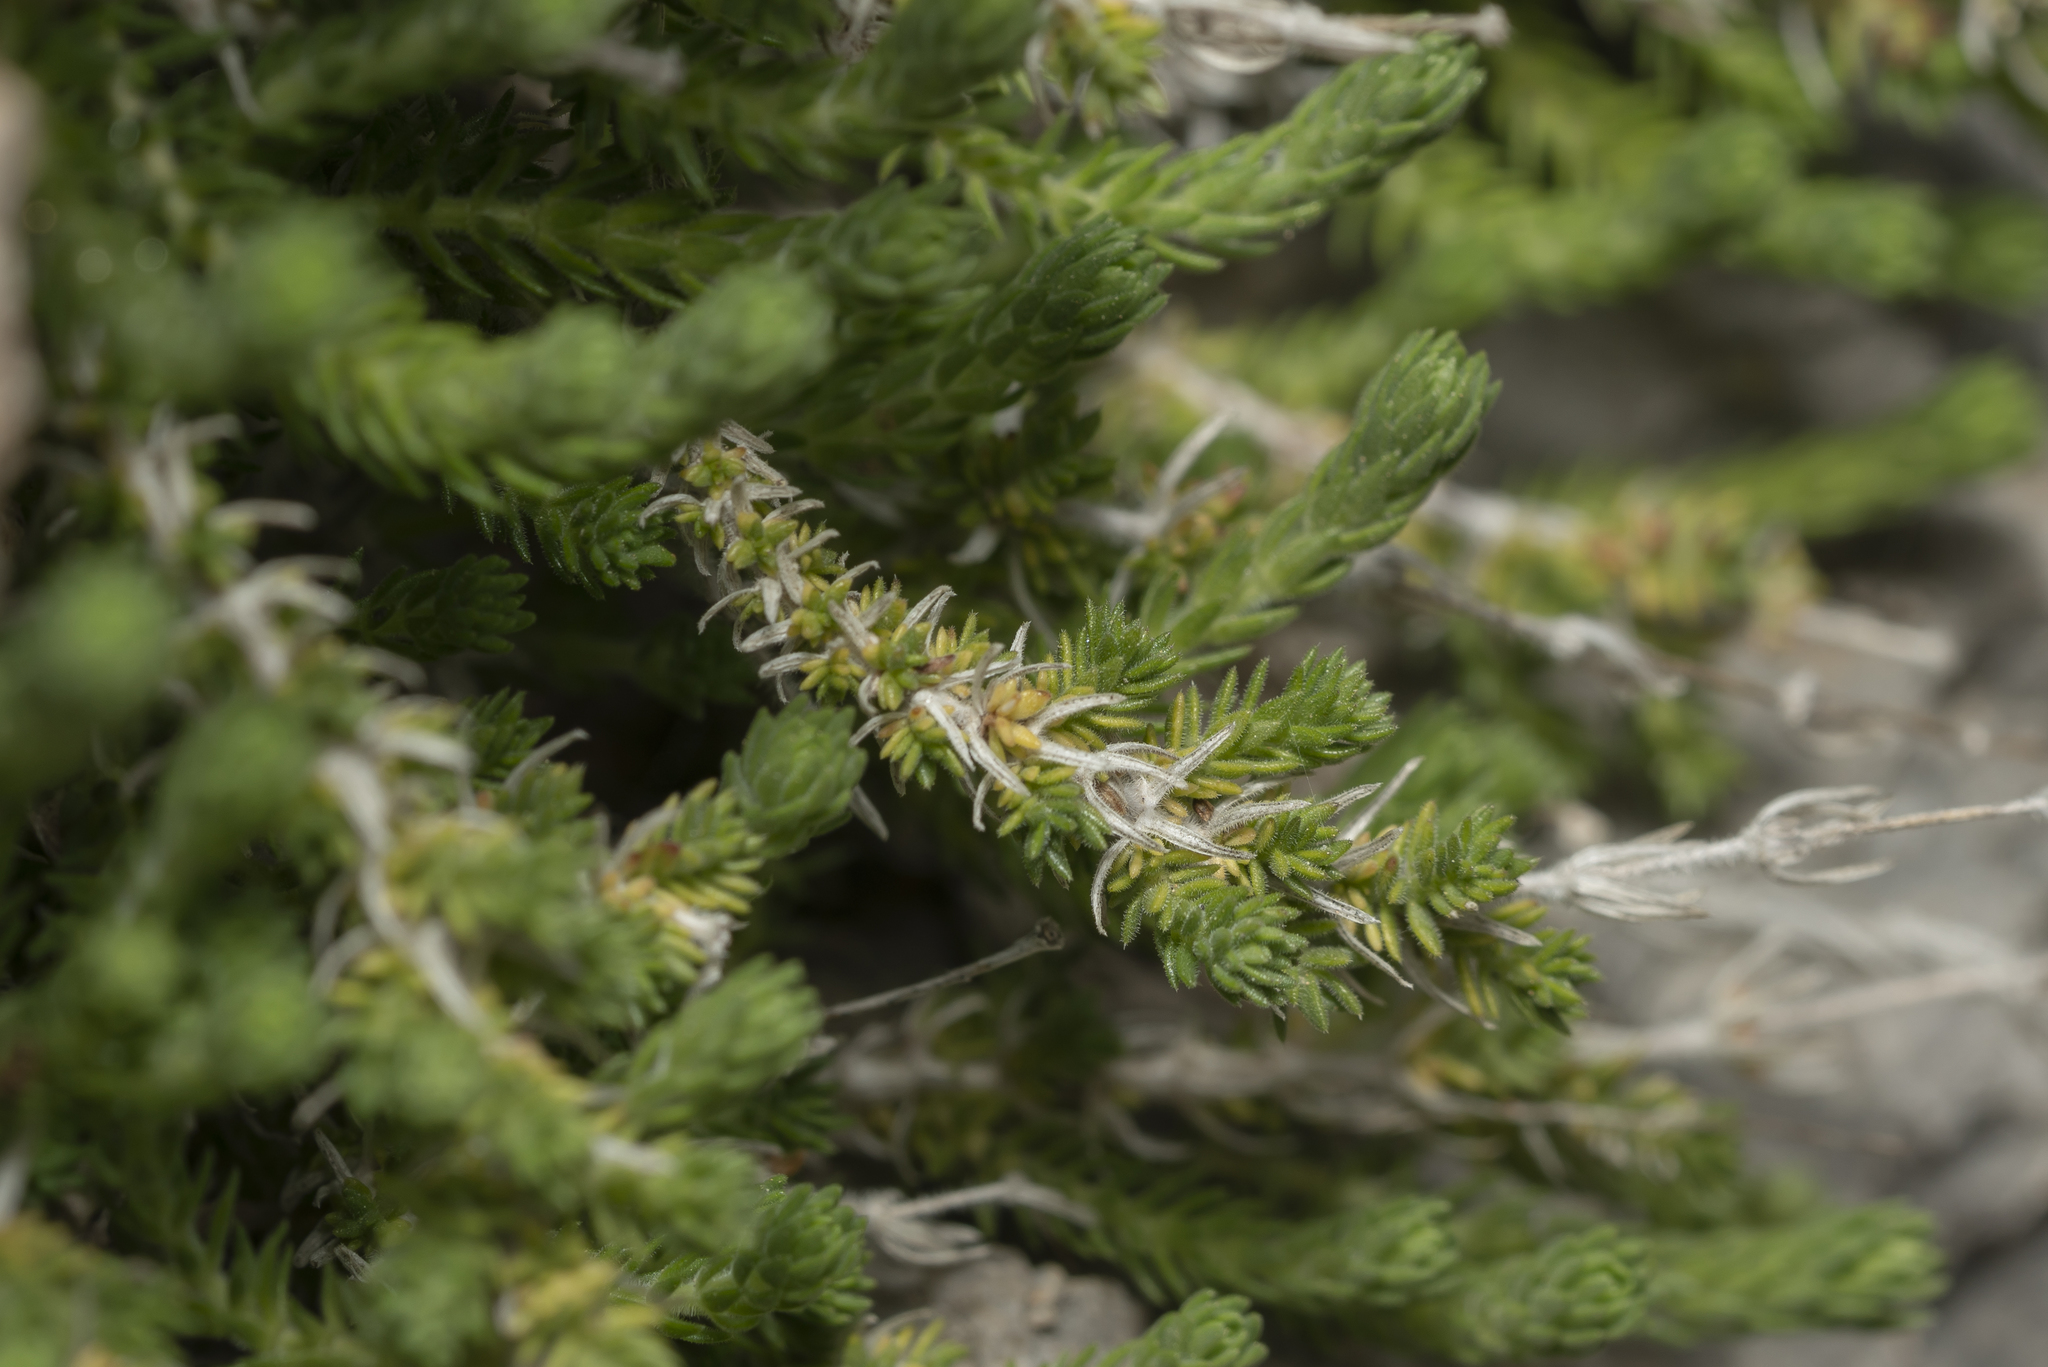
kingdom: Plantae
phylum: Tracheophyta
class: Magnoliopsida
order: Gentianales
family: Rubiaceae
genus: Galium
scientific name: Galium graecum
